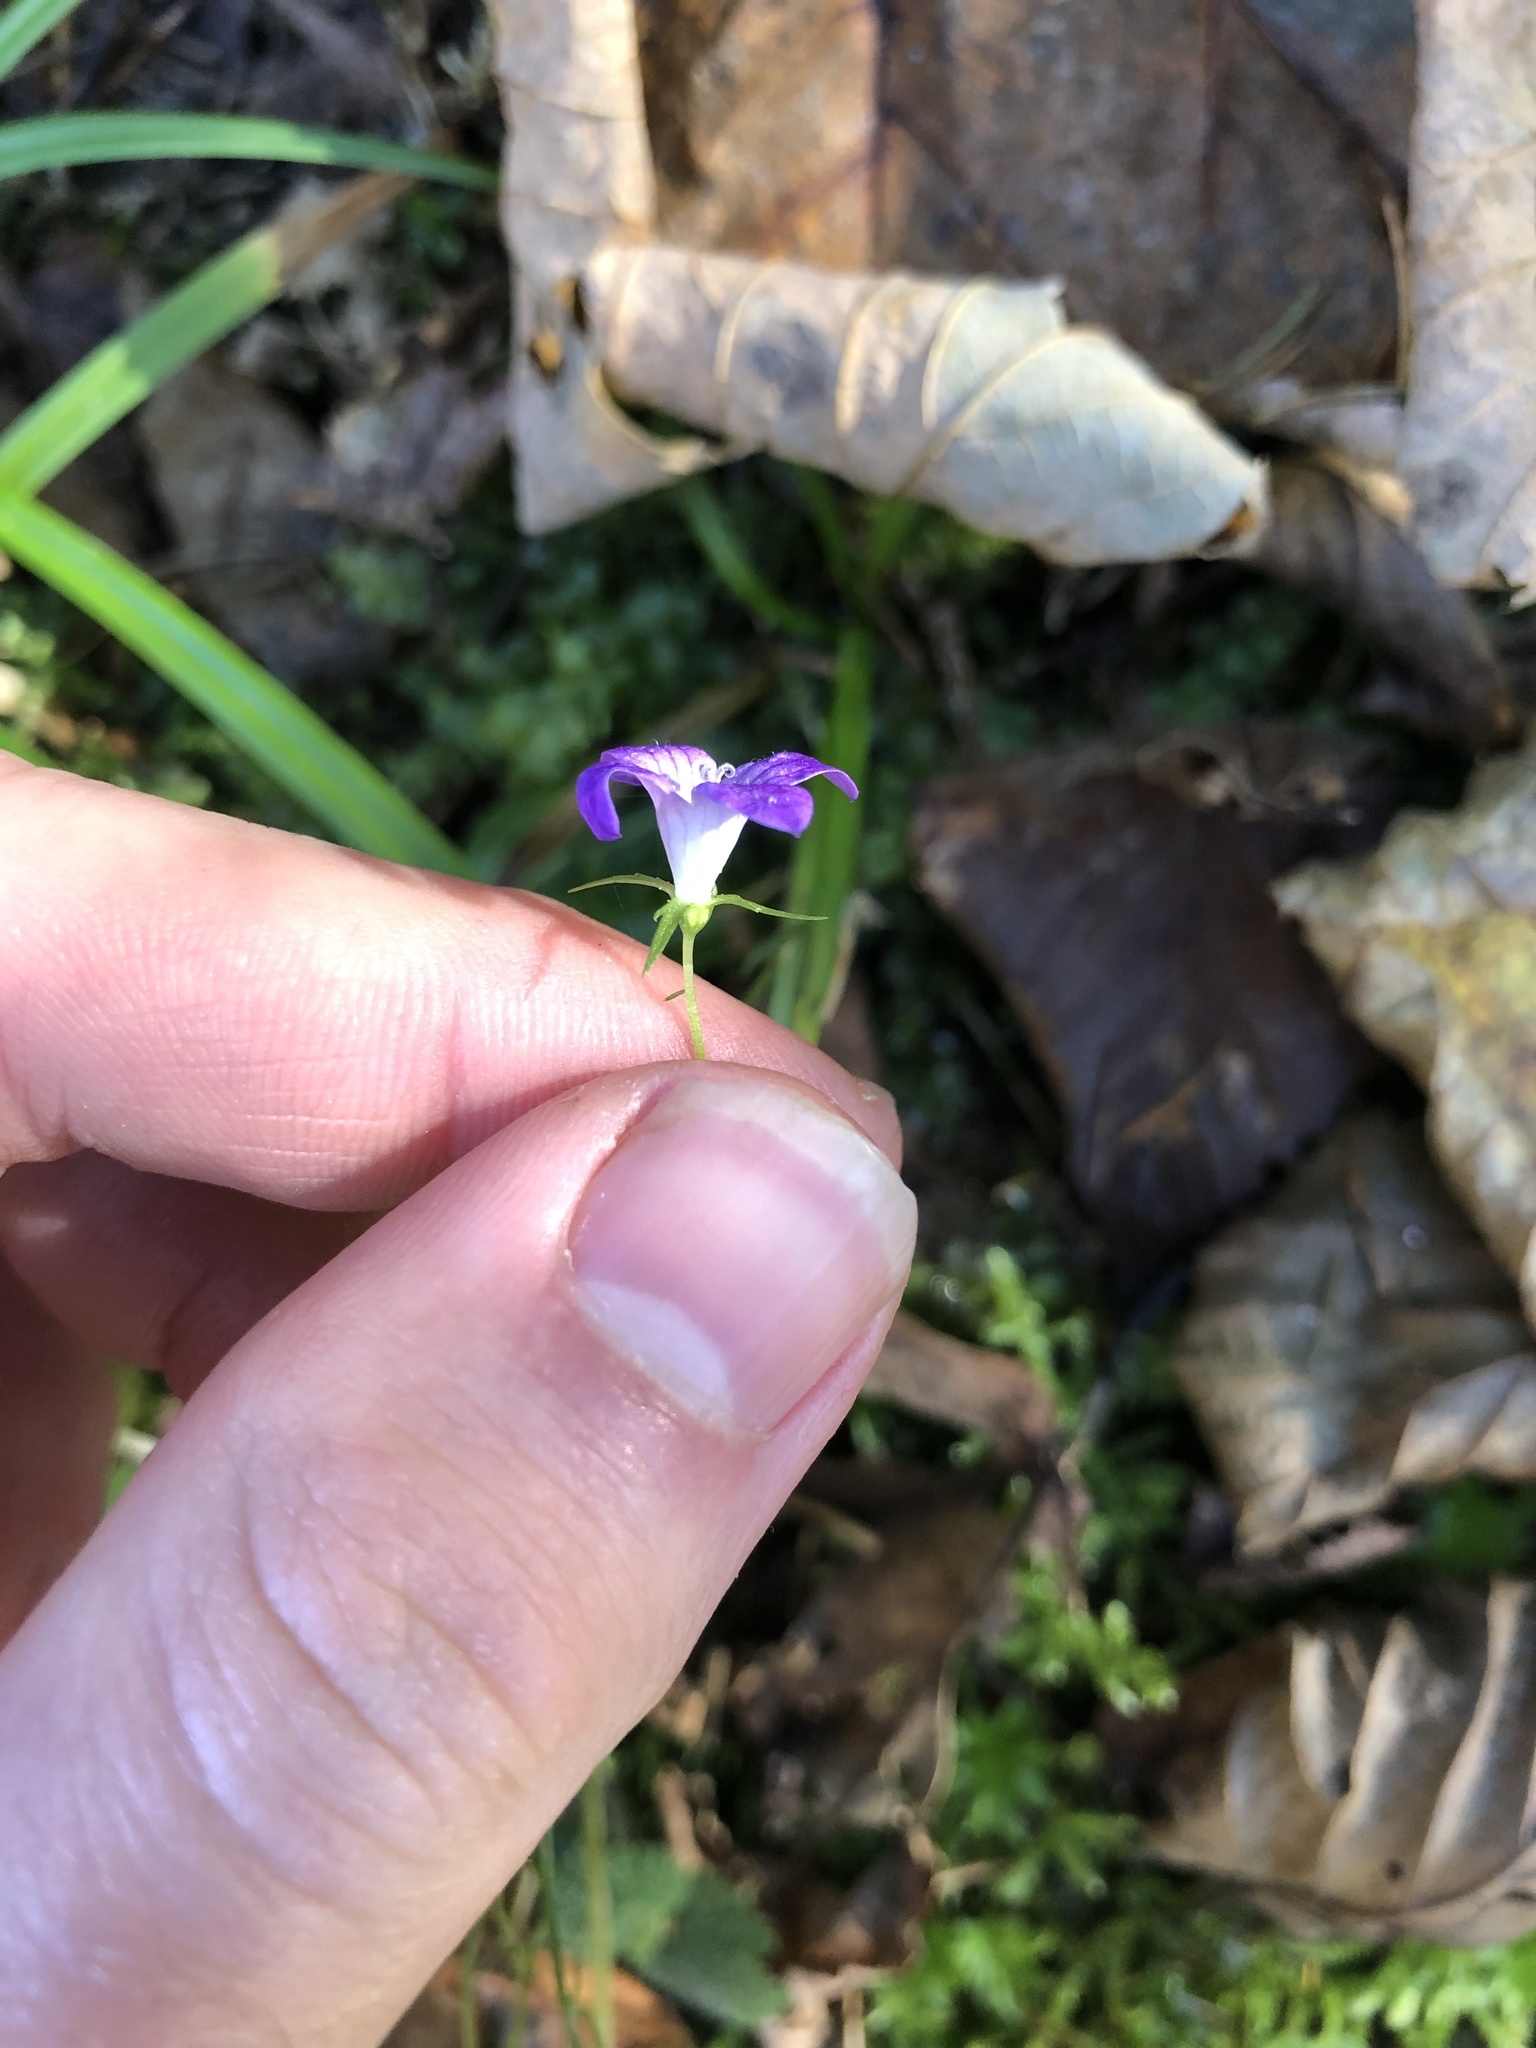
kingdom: Plantae
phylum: Tracheophyta
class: Magnoliopsida
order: Asterales
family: Campanulaceae
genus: Campanula
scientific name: Campanula patula
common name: Spreading bellflower
